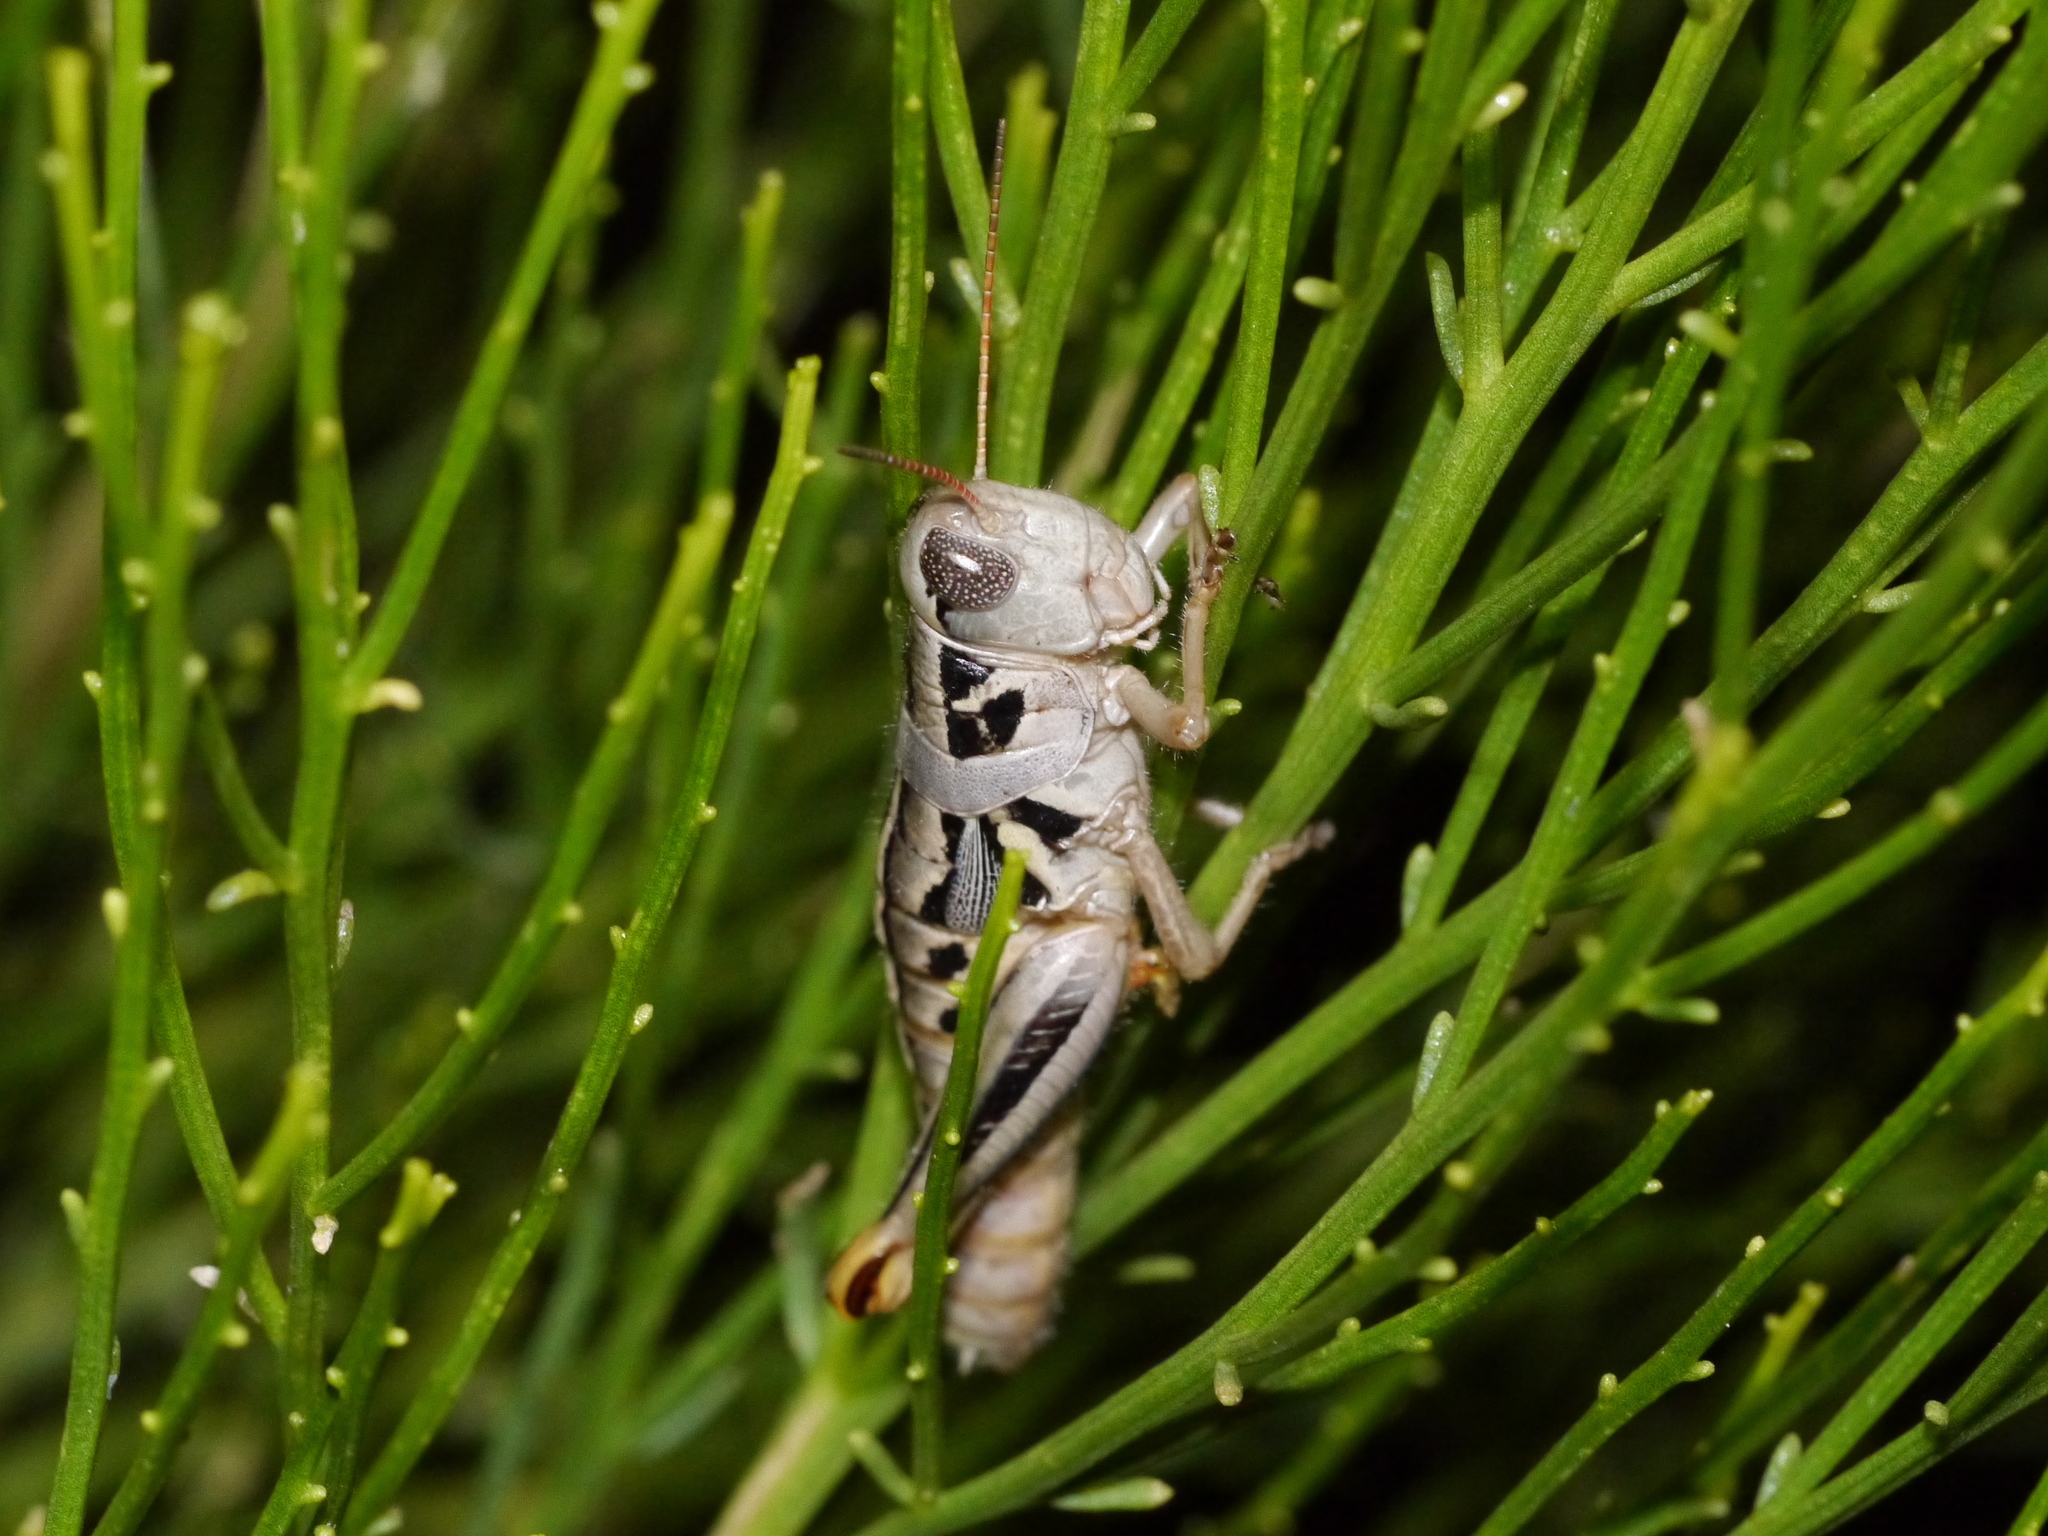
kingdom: Animalia
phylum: Arthropoda
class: Insecta
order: Orthoptera
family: Acrididae
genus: Barytettix
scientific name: Barytettix humphreysii
